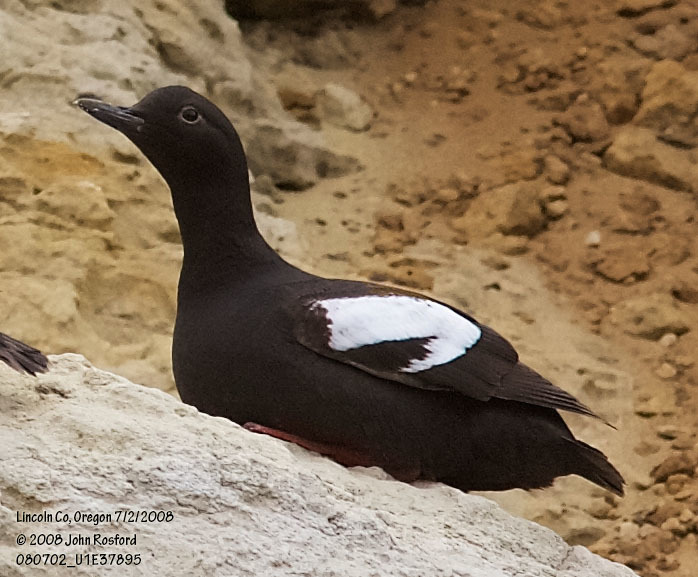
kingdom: Animalia
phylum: Chordata
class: Aves
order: Charadriiformes
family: Alcidae
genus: Cepphus
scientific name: Cepphus columba
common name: Pigeon guillemot
